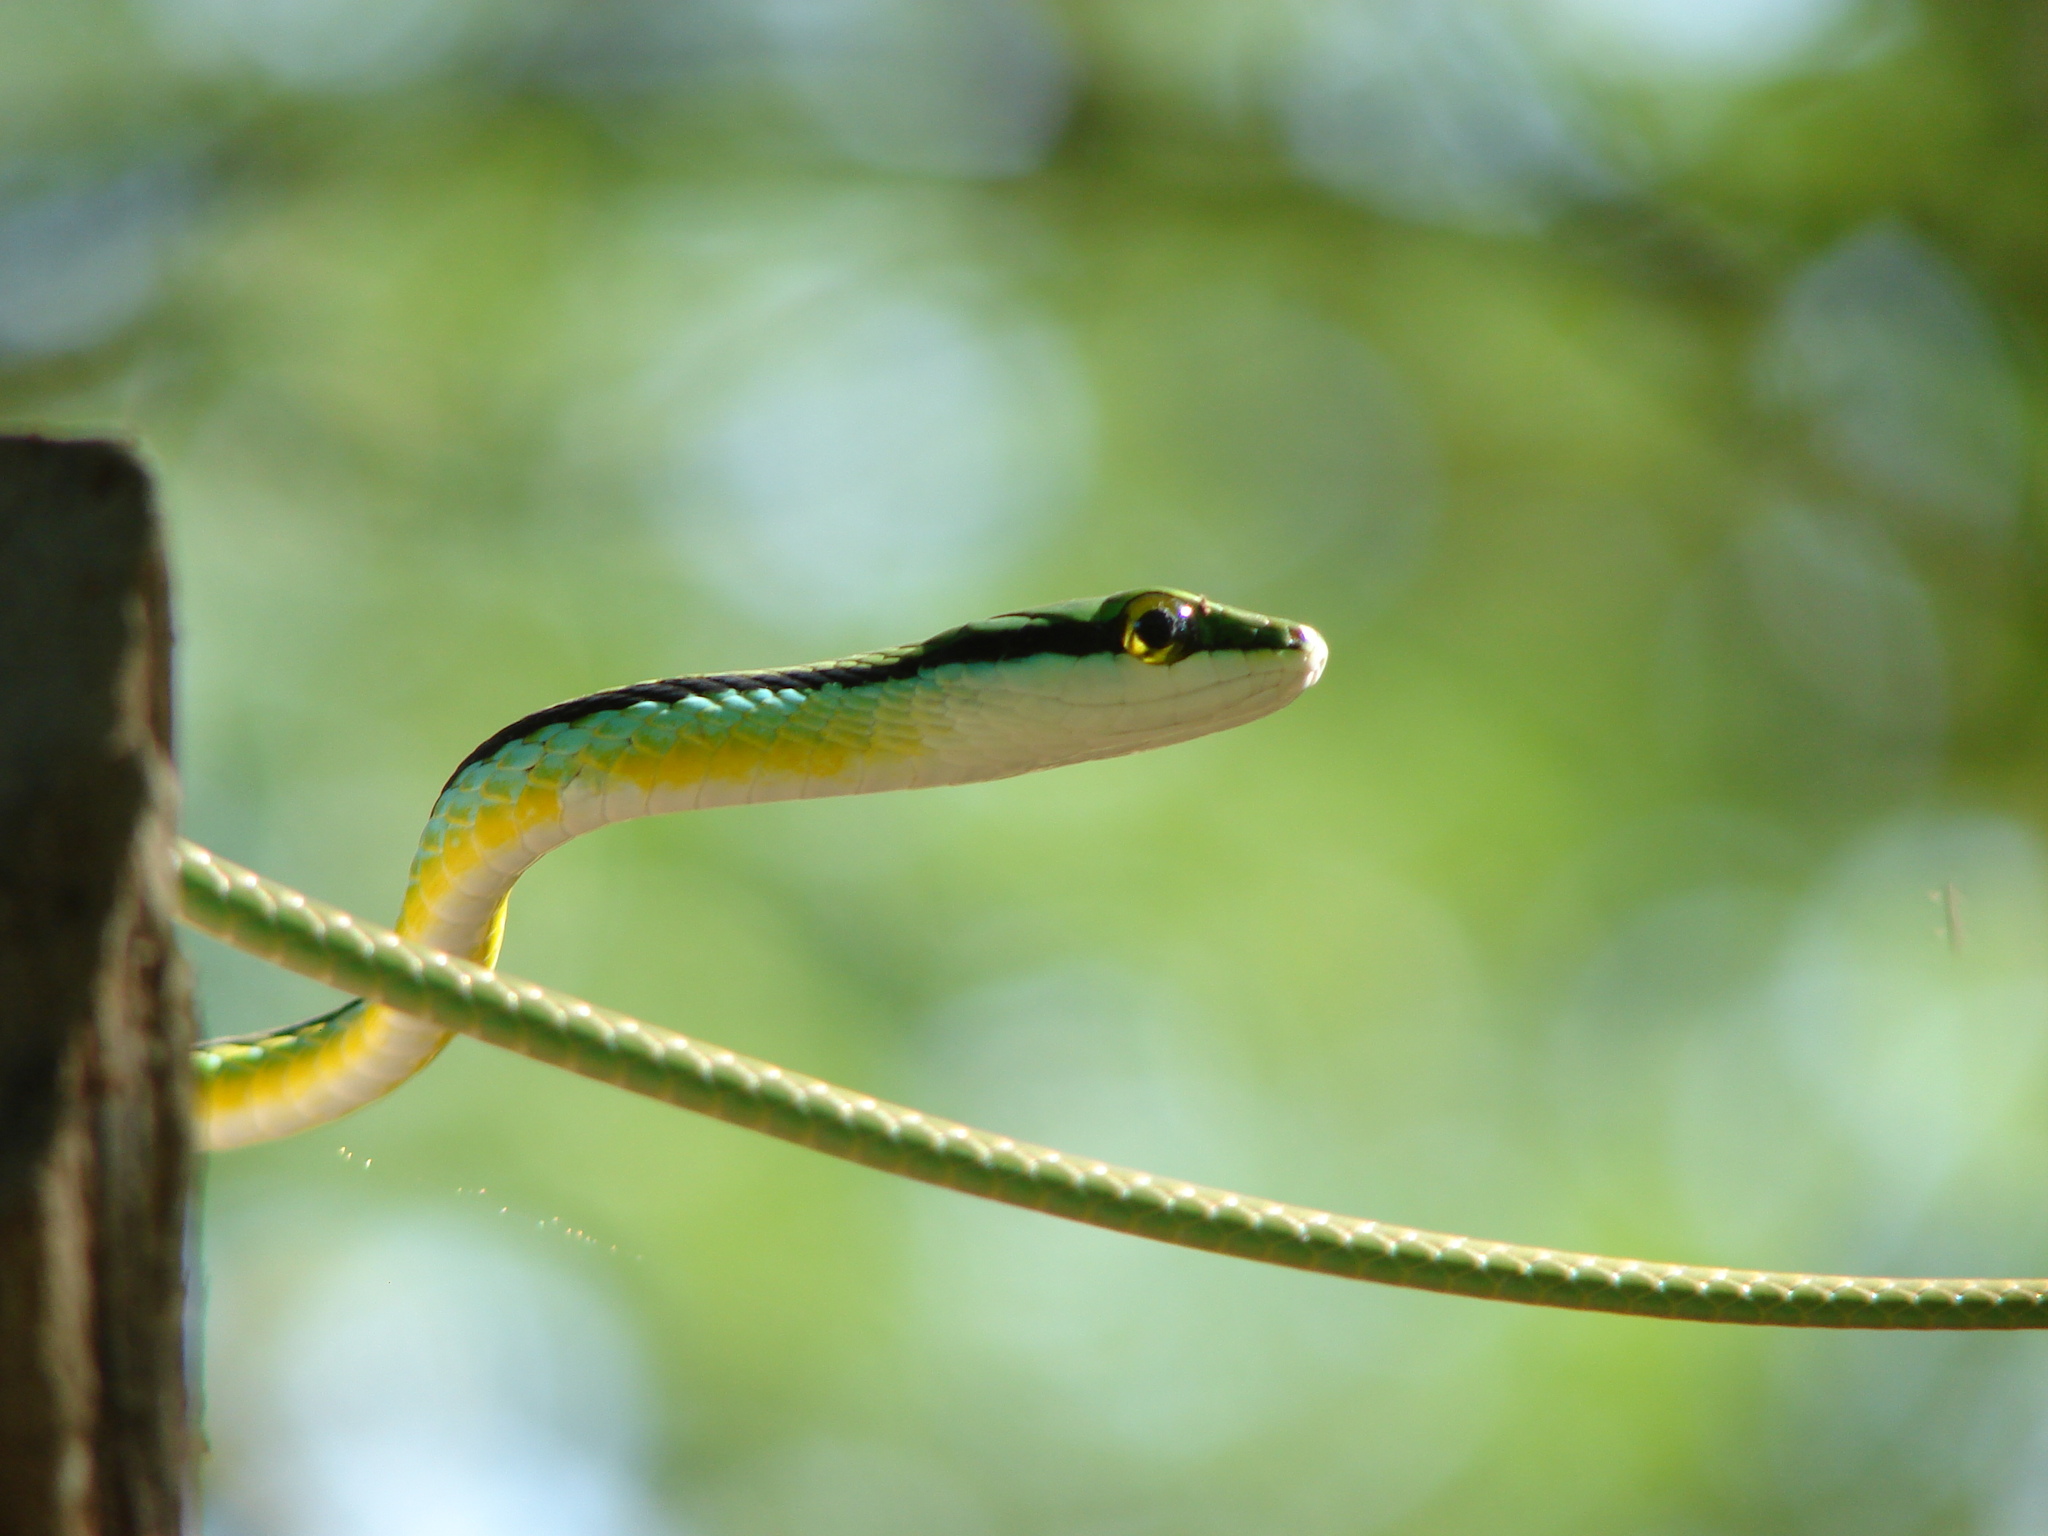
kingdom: Animalia
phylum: Chordata
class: Squamata
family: Colubridae
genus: Leptophis
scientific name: Leptophis diplotropis
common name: Pacific coast parrot snake
